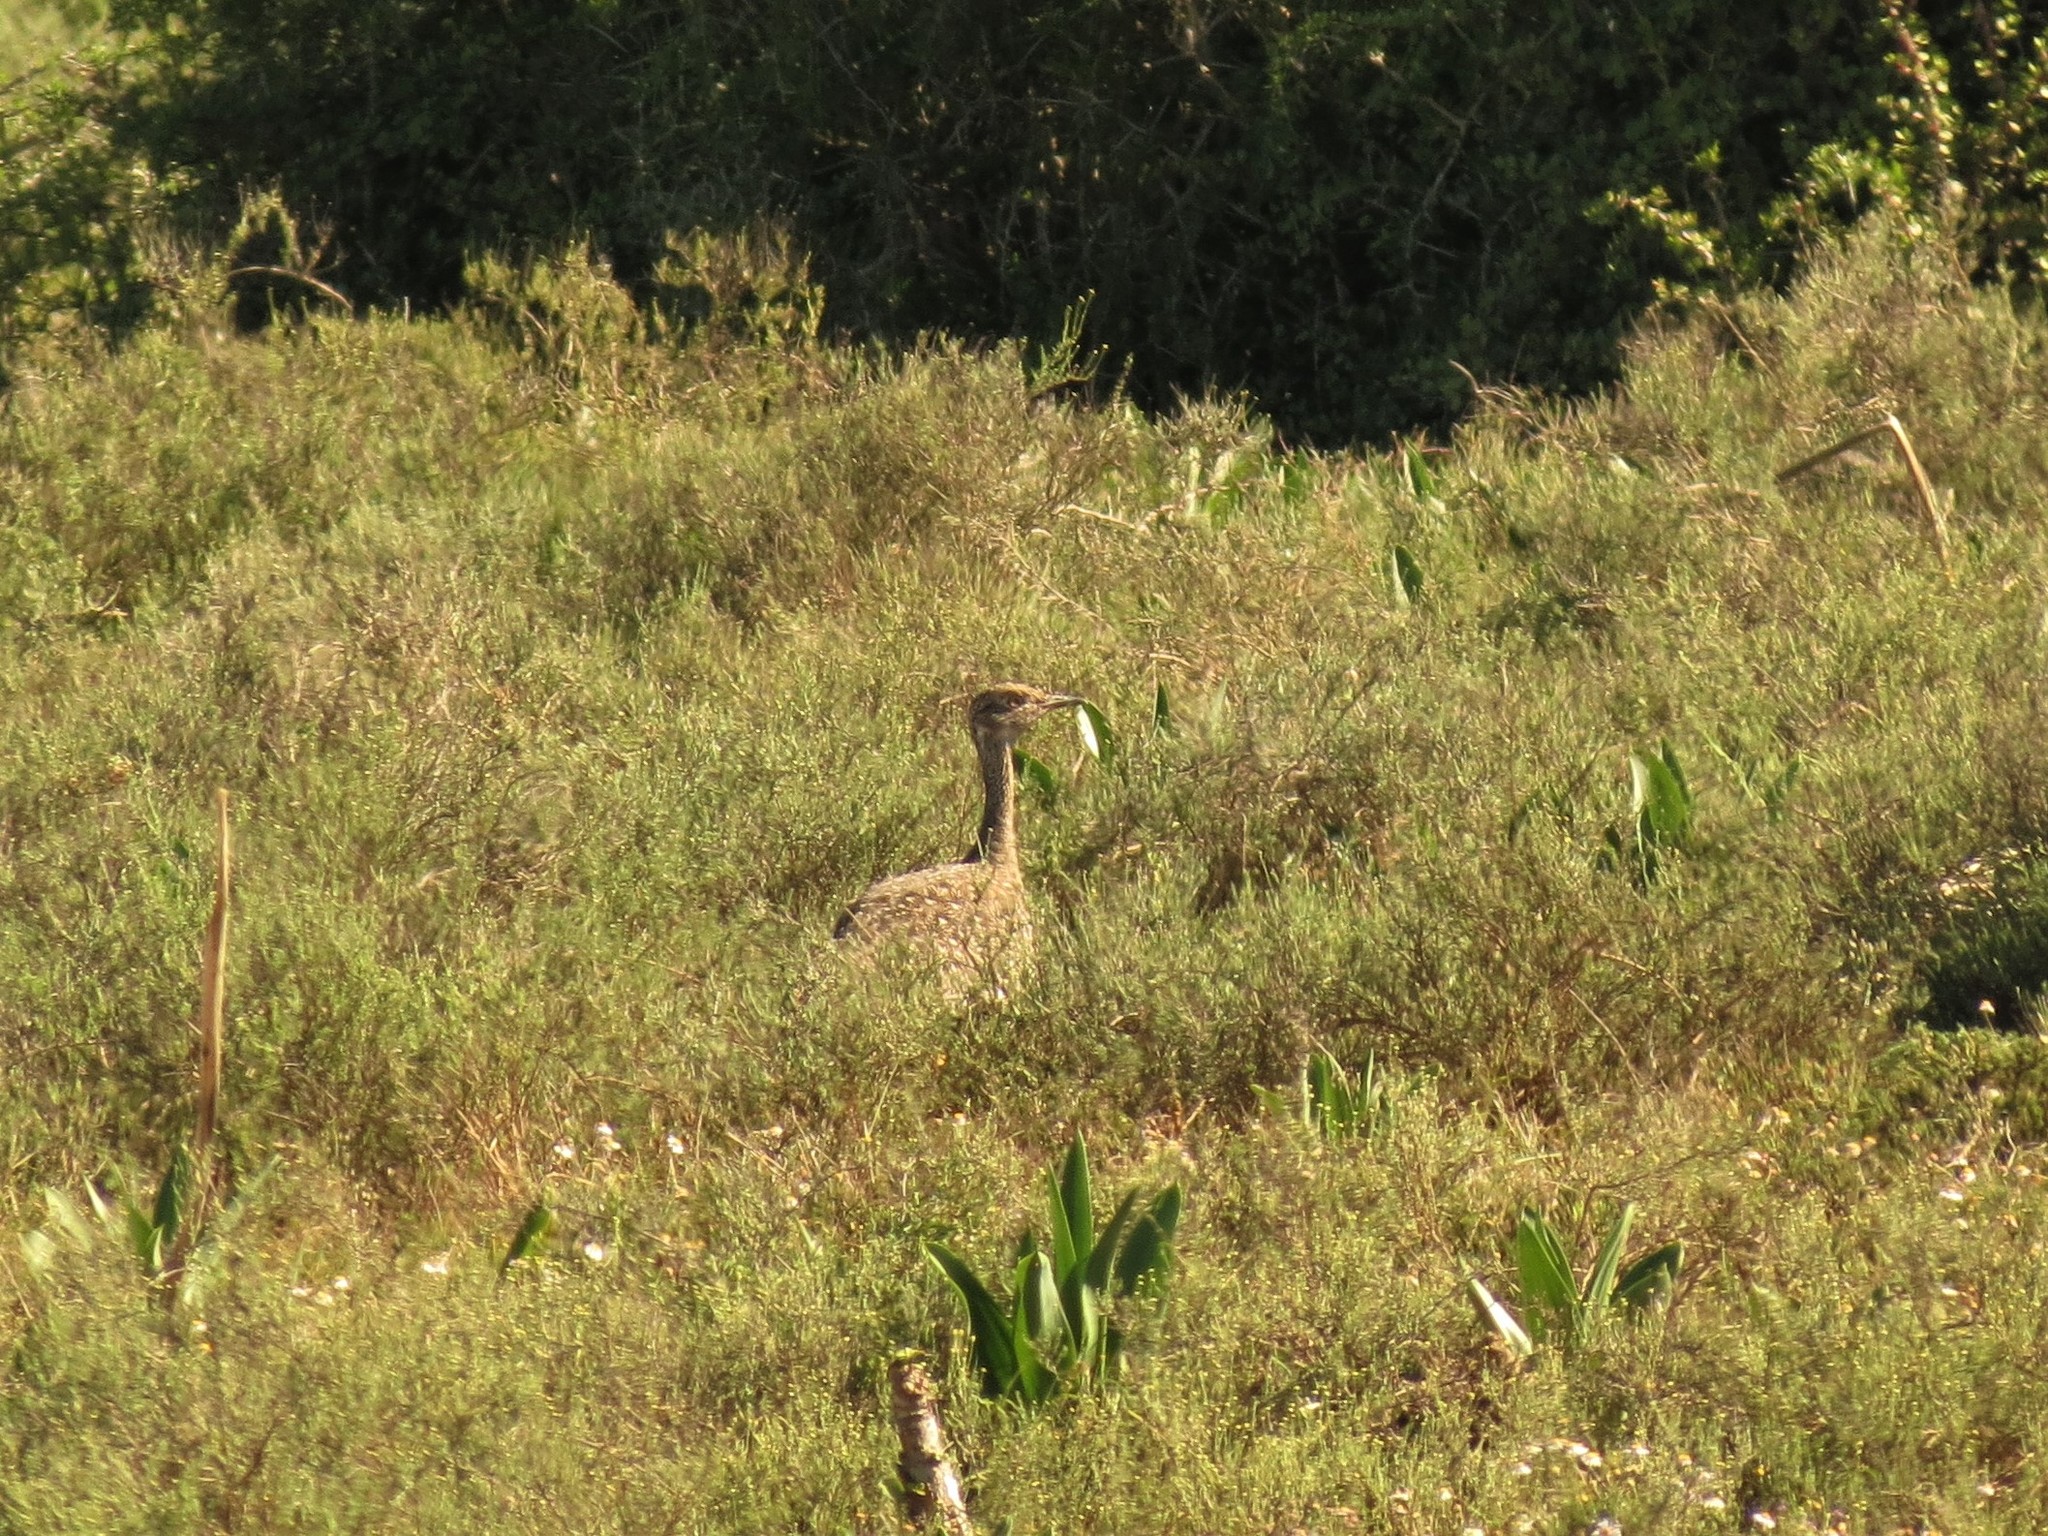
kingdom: Animalia
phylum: Chordata
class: Aves
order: Otidiformes
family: Otididae
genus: Afrotis
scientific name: Afrotis afra
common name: Southern black korhaan
